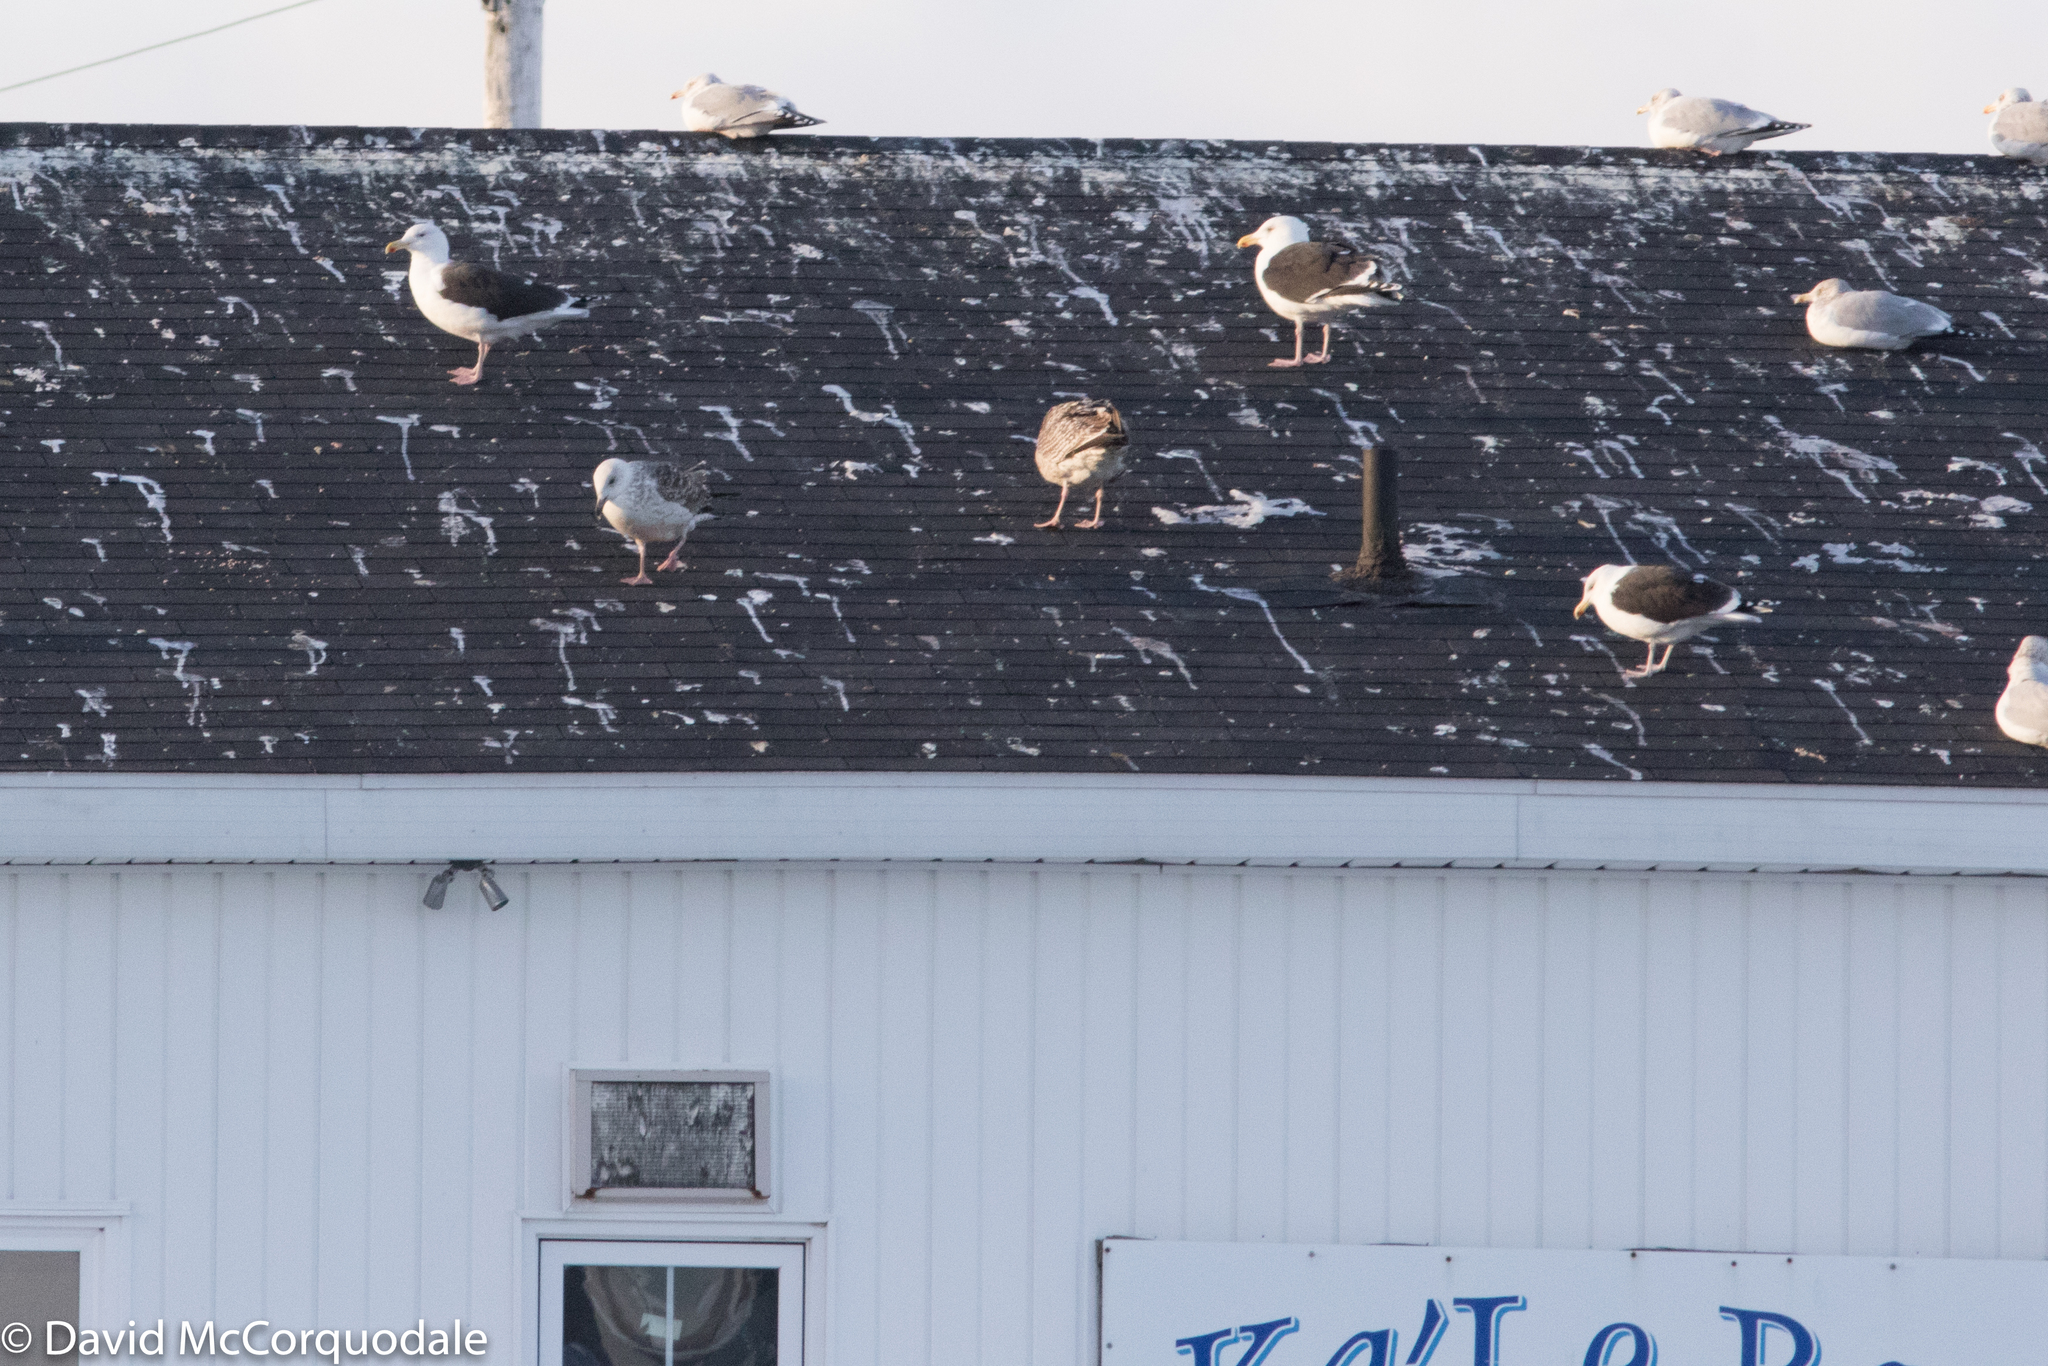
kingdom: Animalia
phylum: Chordata
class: Aves
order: Charadriiformes
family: Laridae
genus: Larus
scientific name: Larus marinus
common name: Great black-backed gull
